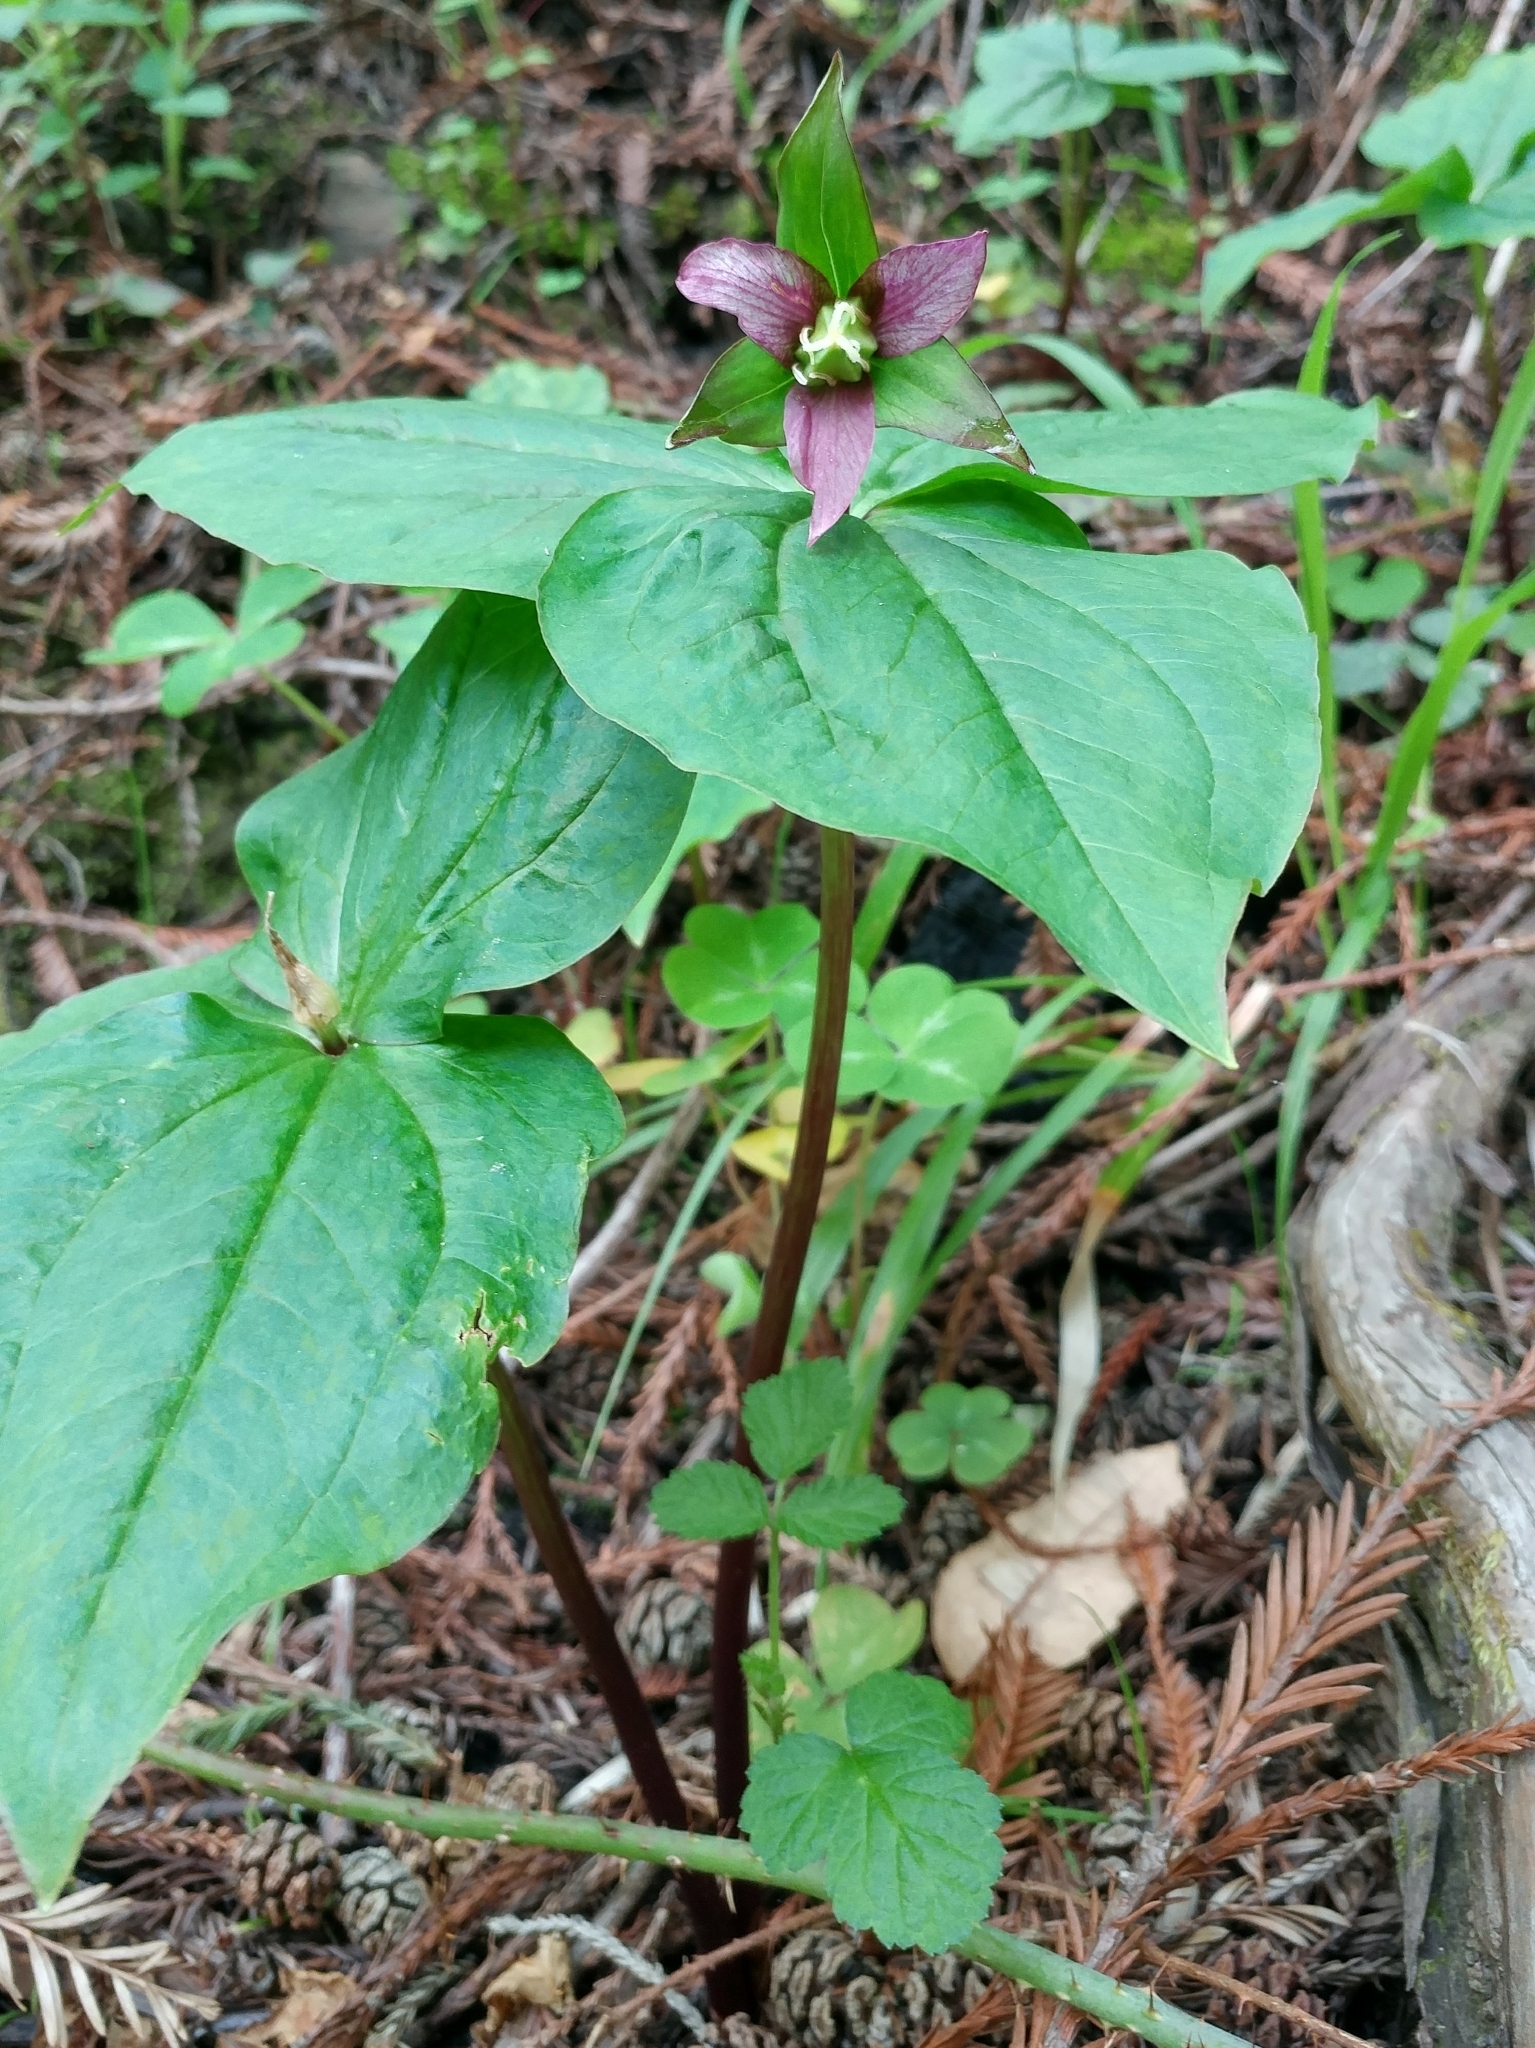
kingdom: Plantae
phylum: Tracheophyta
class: Liliopsida
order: Liliales
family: Melanthiaceae
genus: Trillium
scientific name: Trillium ovatum
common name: Pacific trillium
